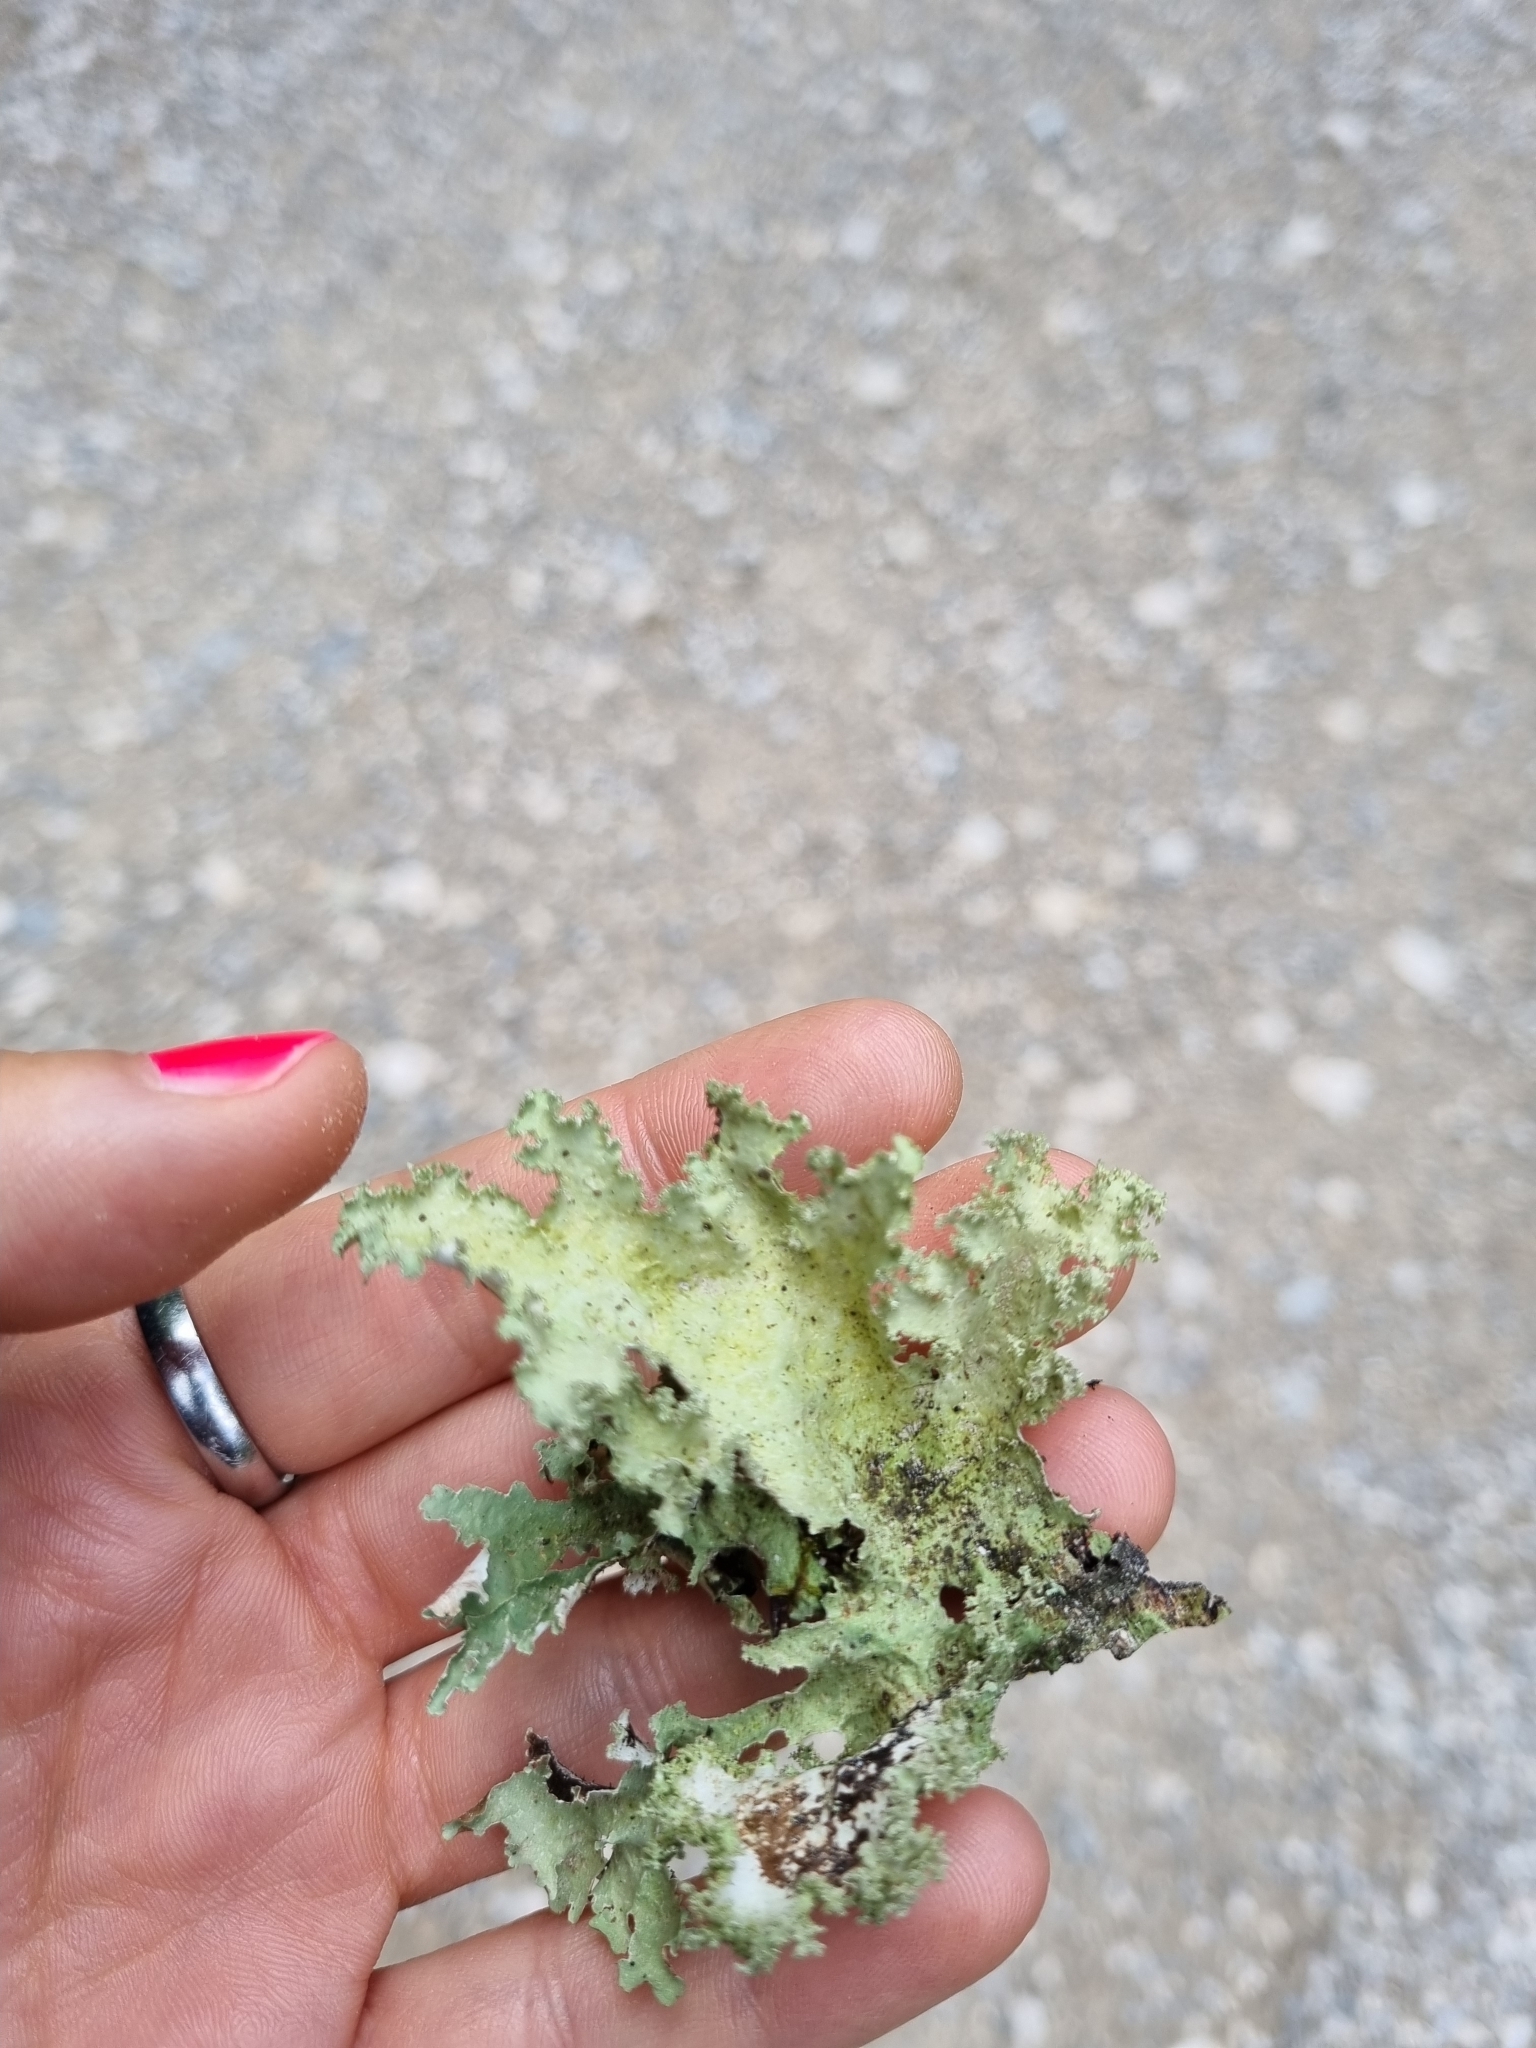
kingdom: Fungi
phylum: Ascomycota
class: Lecanoromycetes
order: Lecanorales
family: Parmeliaceae
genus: Platismatia
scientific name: Platismatia glauca
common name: Varied rag lichen
